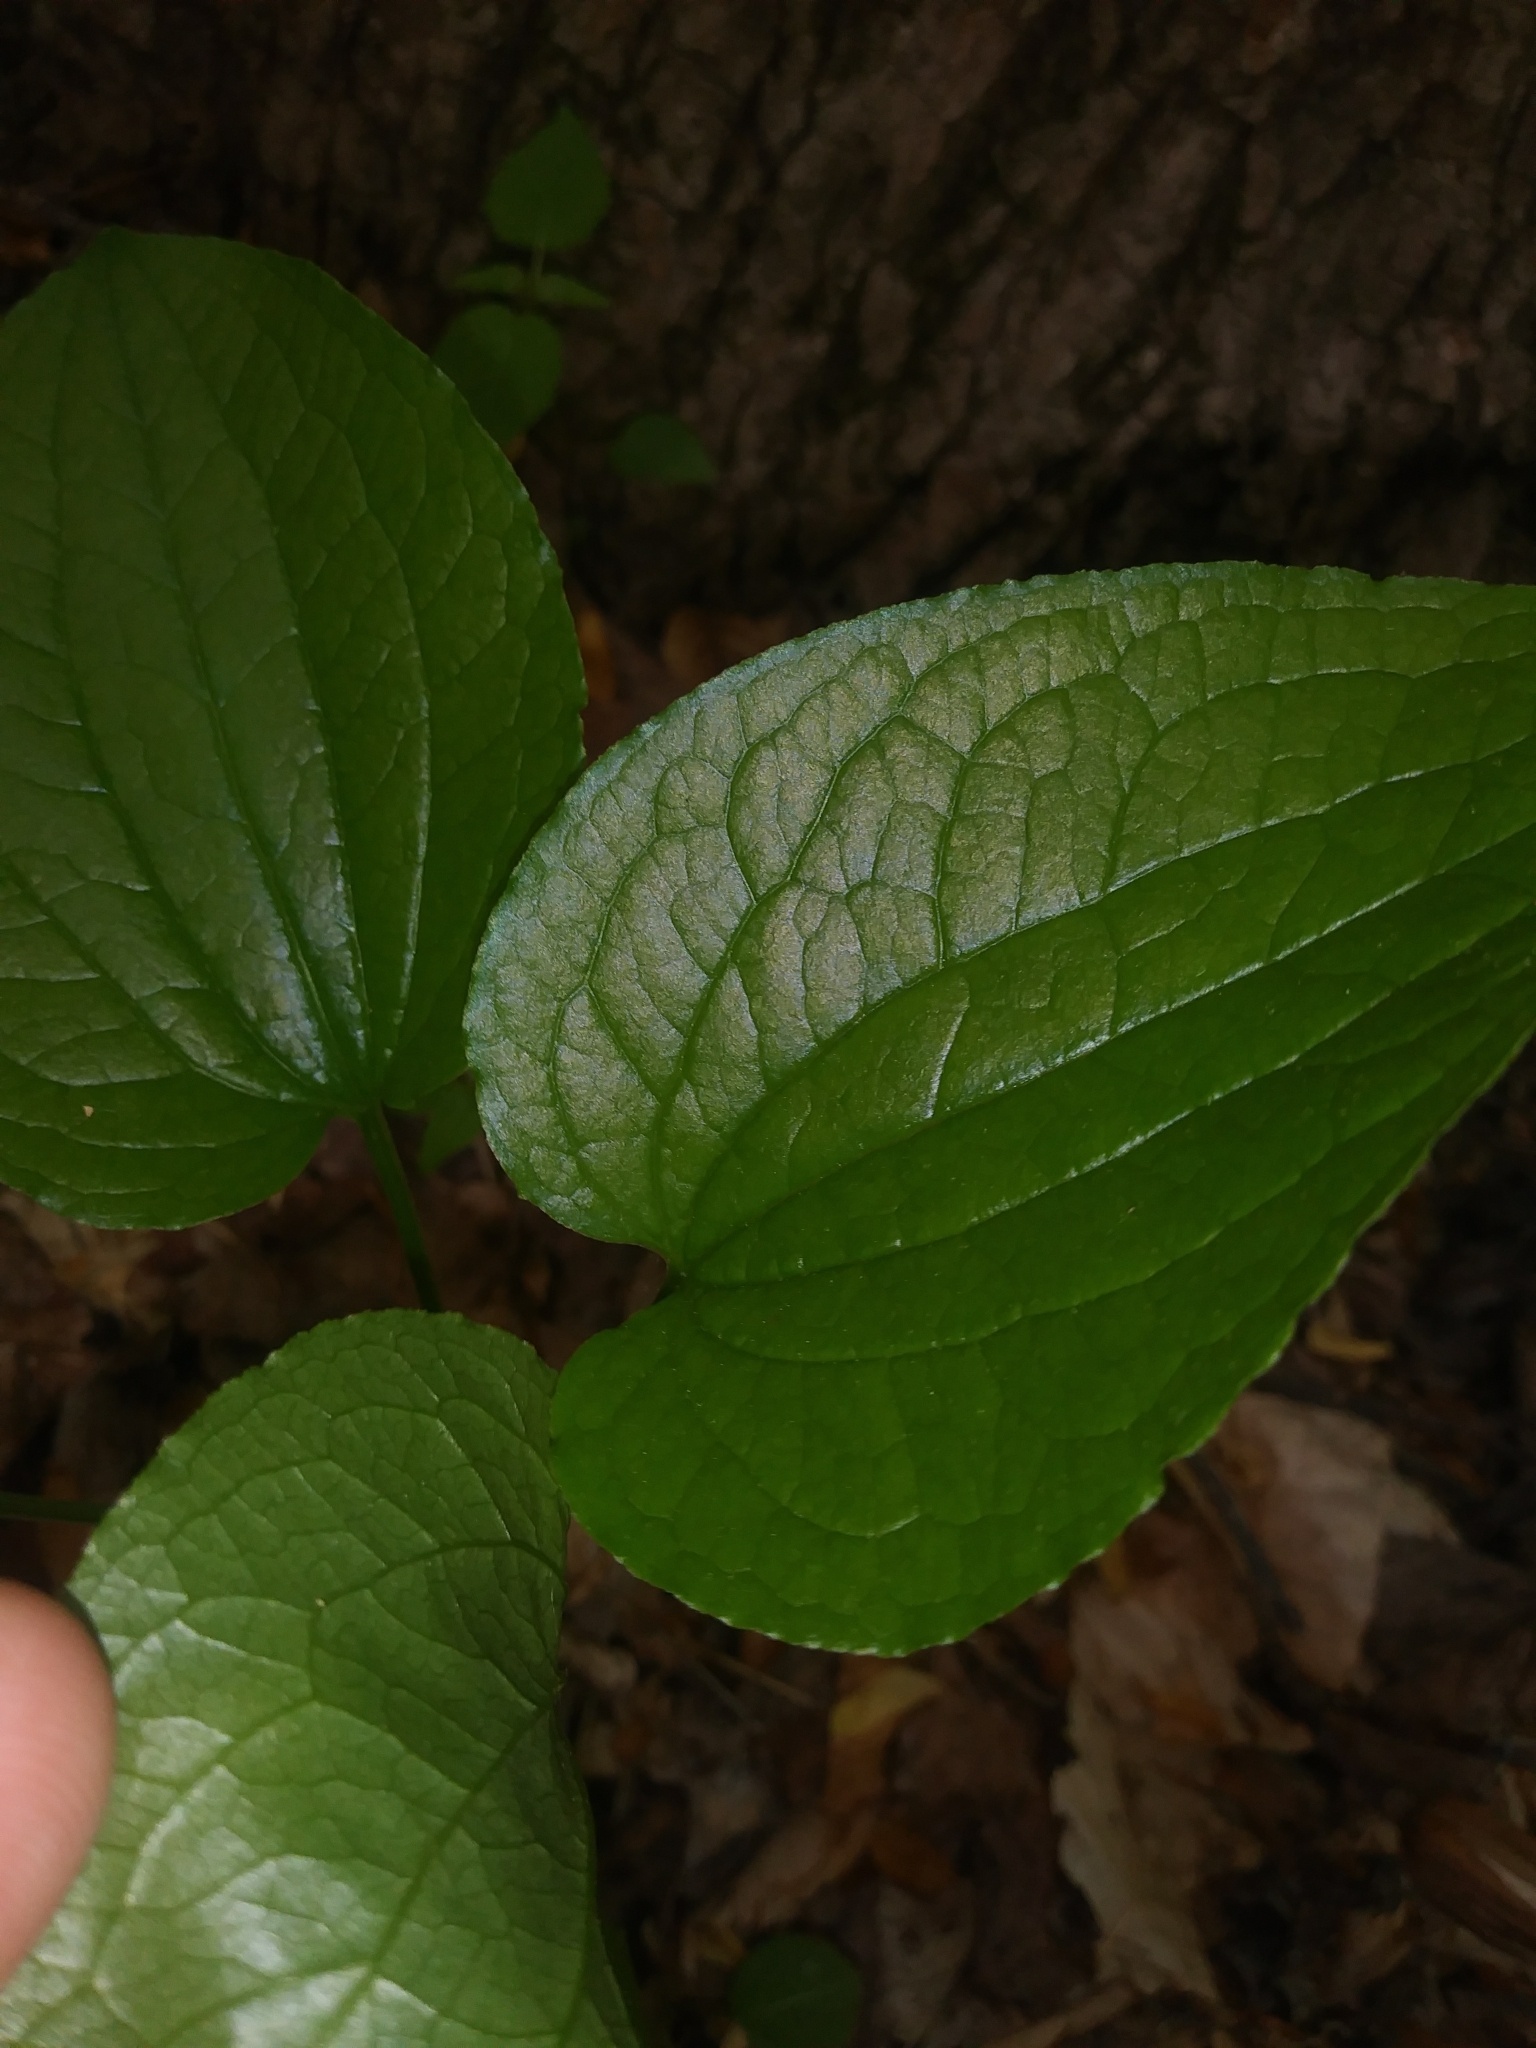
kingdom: Plantae
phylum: Tracheophyta
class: Liliopsida
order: Liliales
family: Smilacaceae
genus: Smilax
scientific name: Smilax pulverulenta
